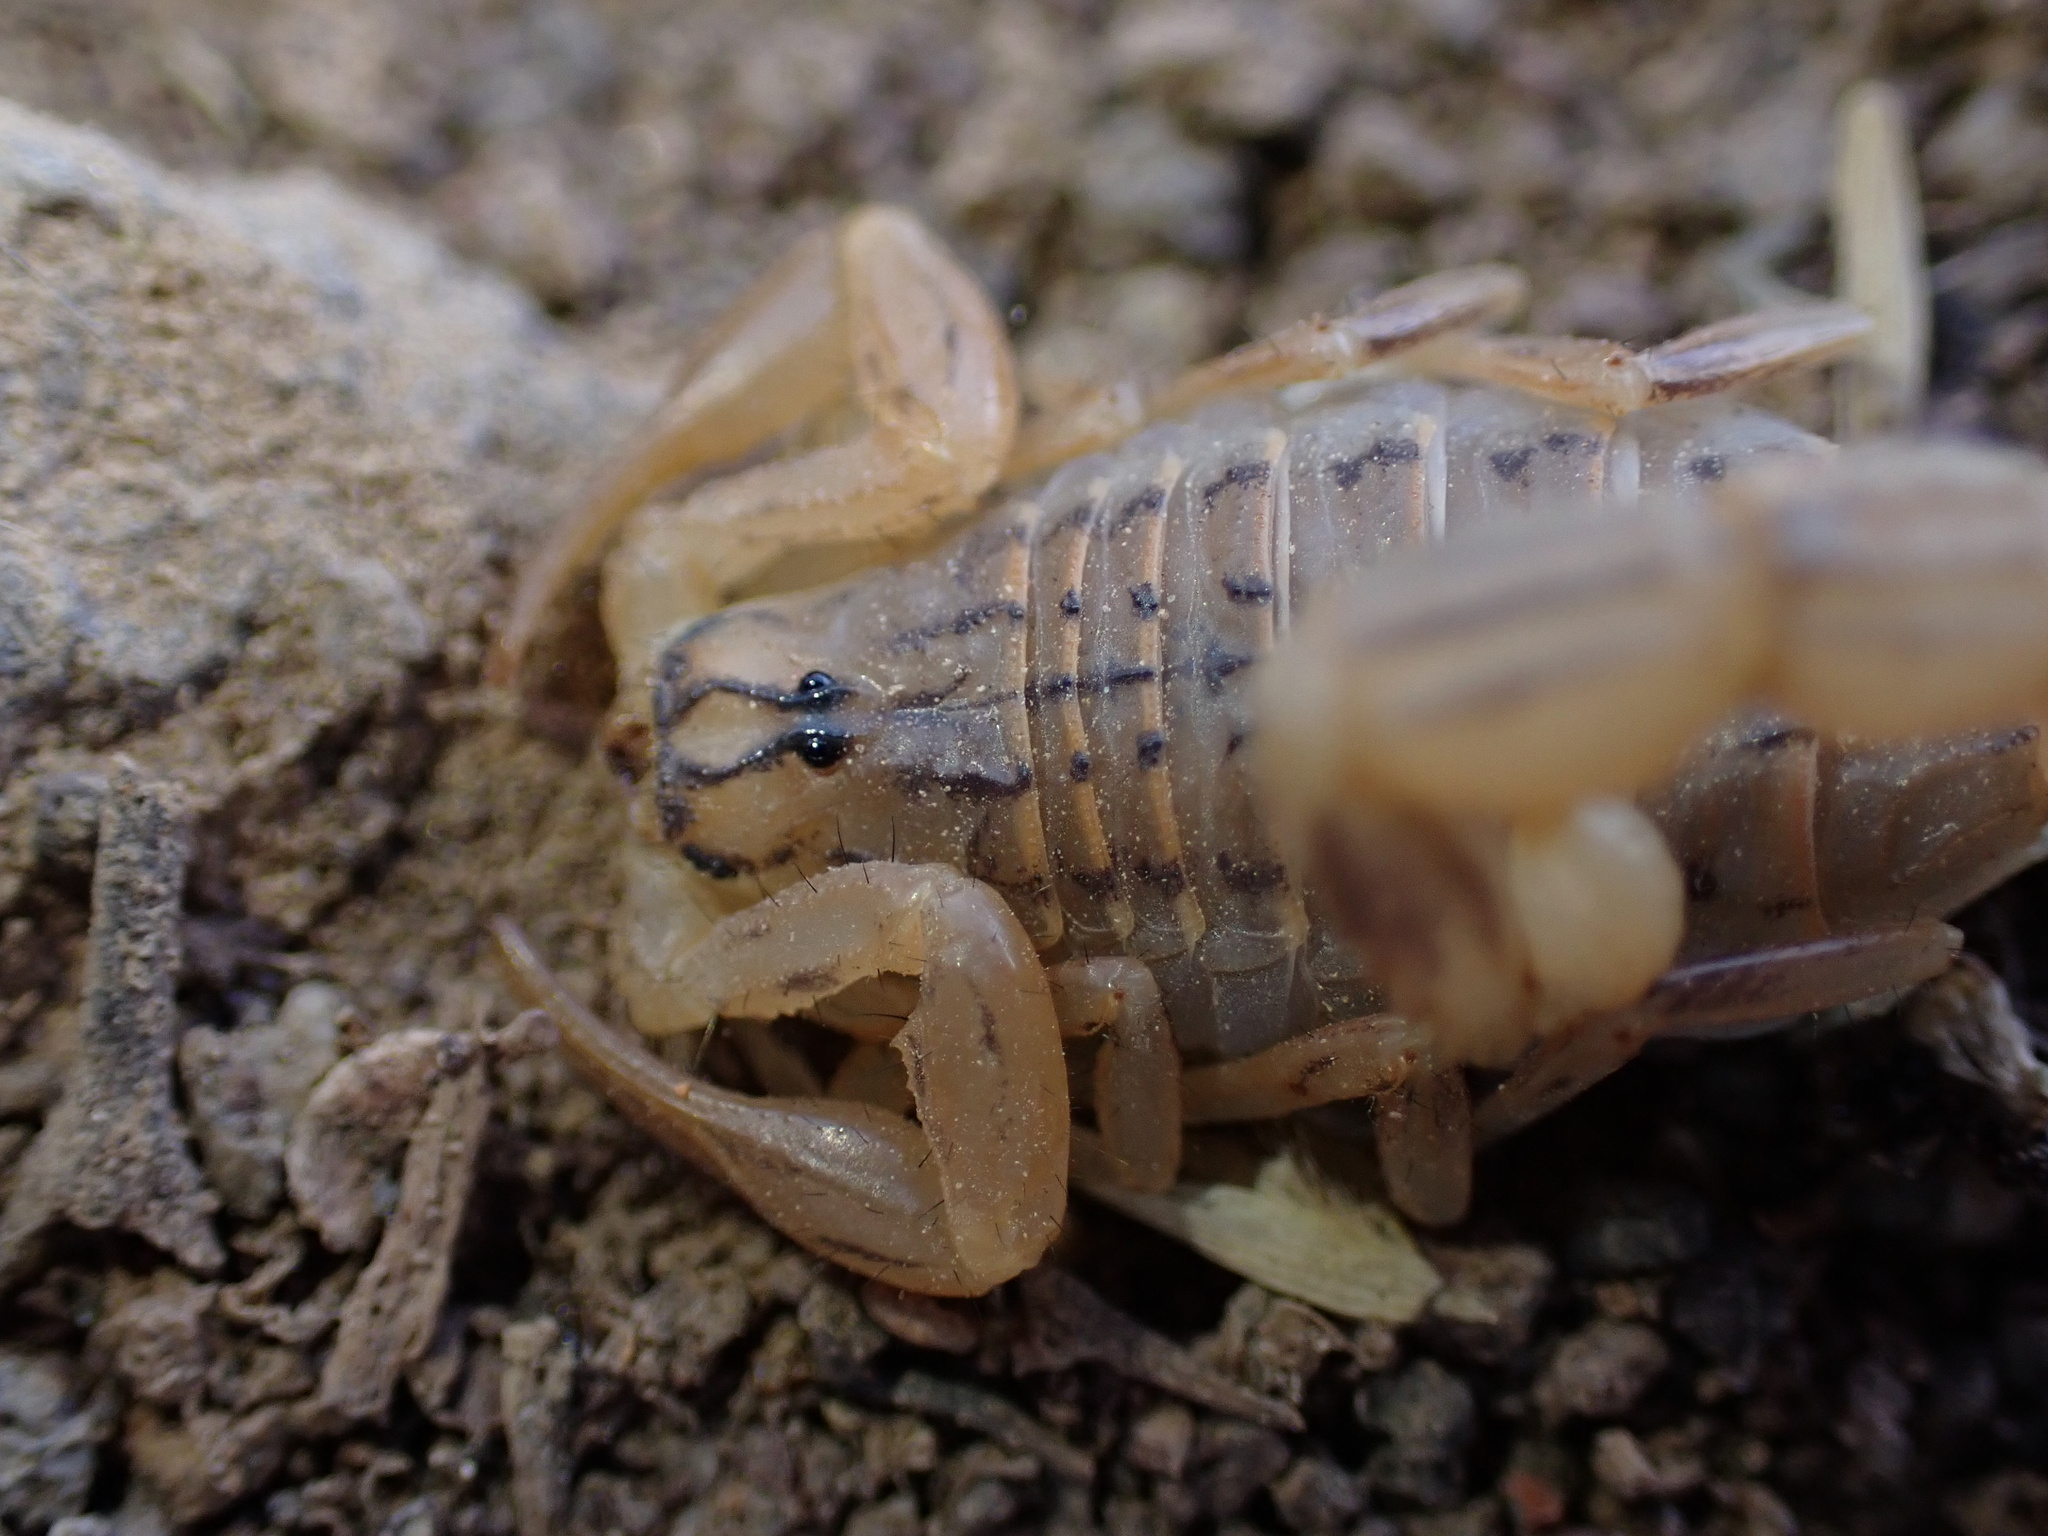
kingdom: Animalia
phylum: Arthropoda
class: Arachnida
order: Scorpiones
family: Buthidae
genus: Mesobuthus
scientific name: Mesobuthus afghanus
